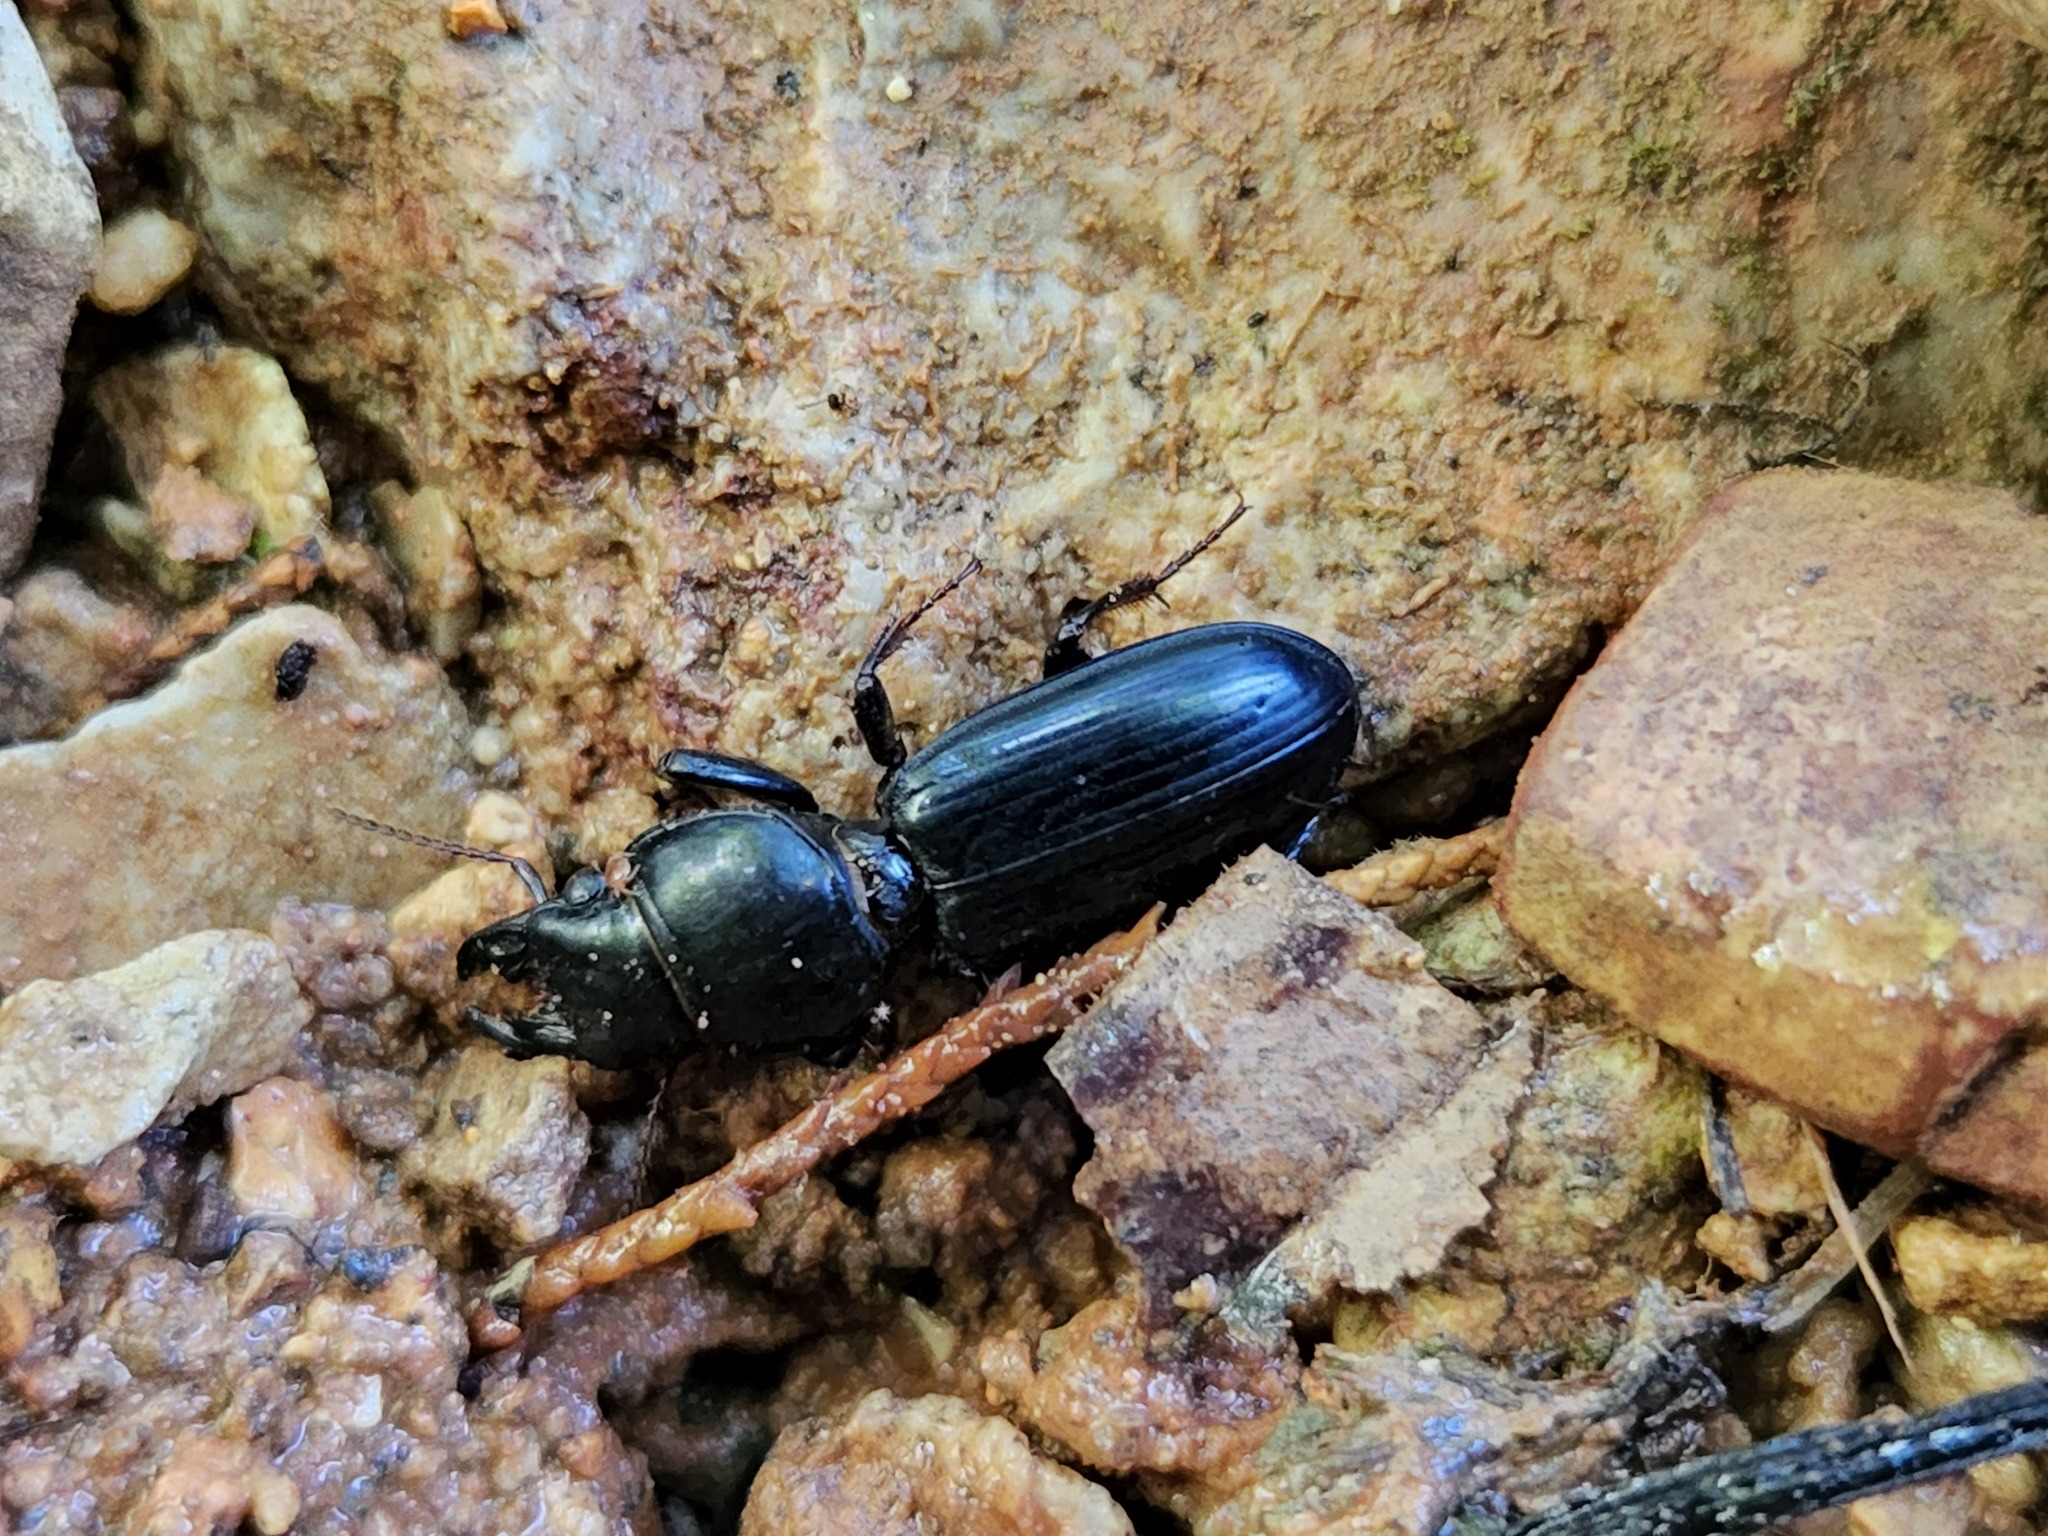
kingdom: Animalia
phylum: Arthropoda
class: Insecta
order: Coleoptera
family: Carabidae
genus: Scarites
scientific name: Scarites subterraneus
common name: Big-headed ground beetle
